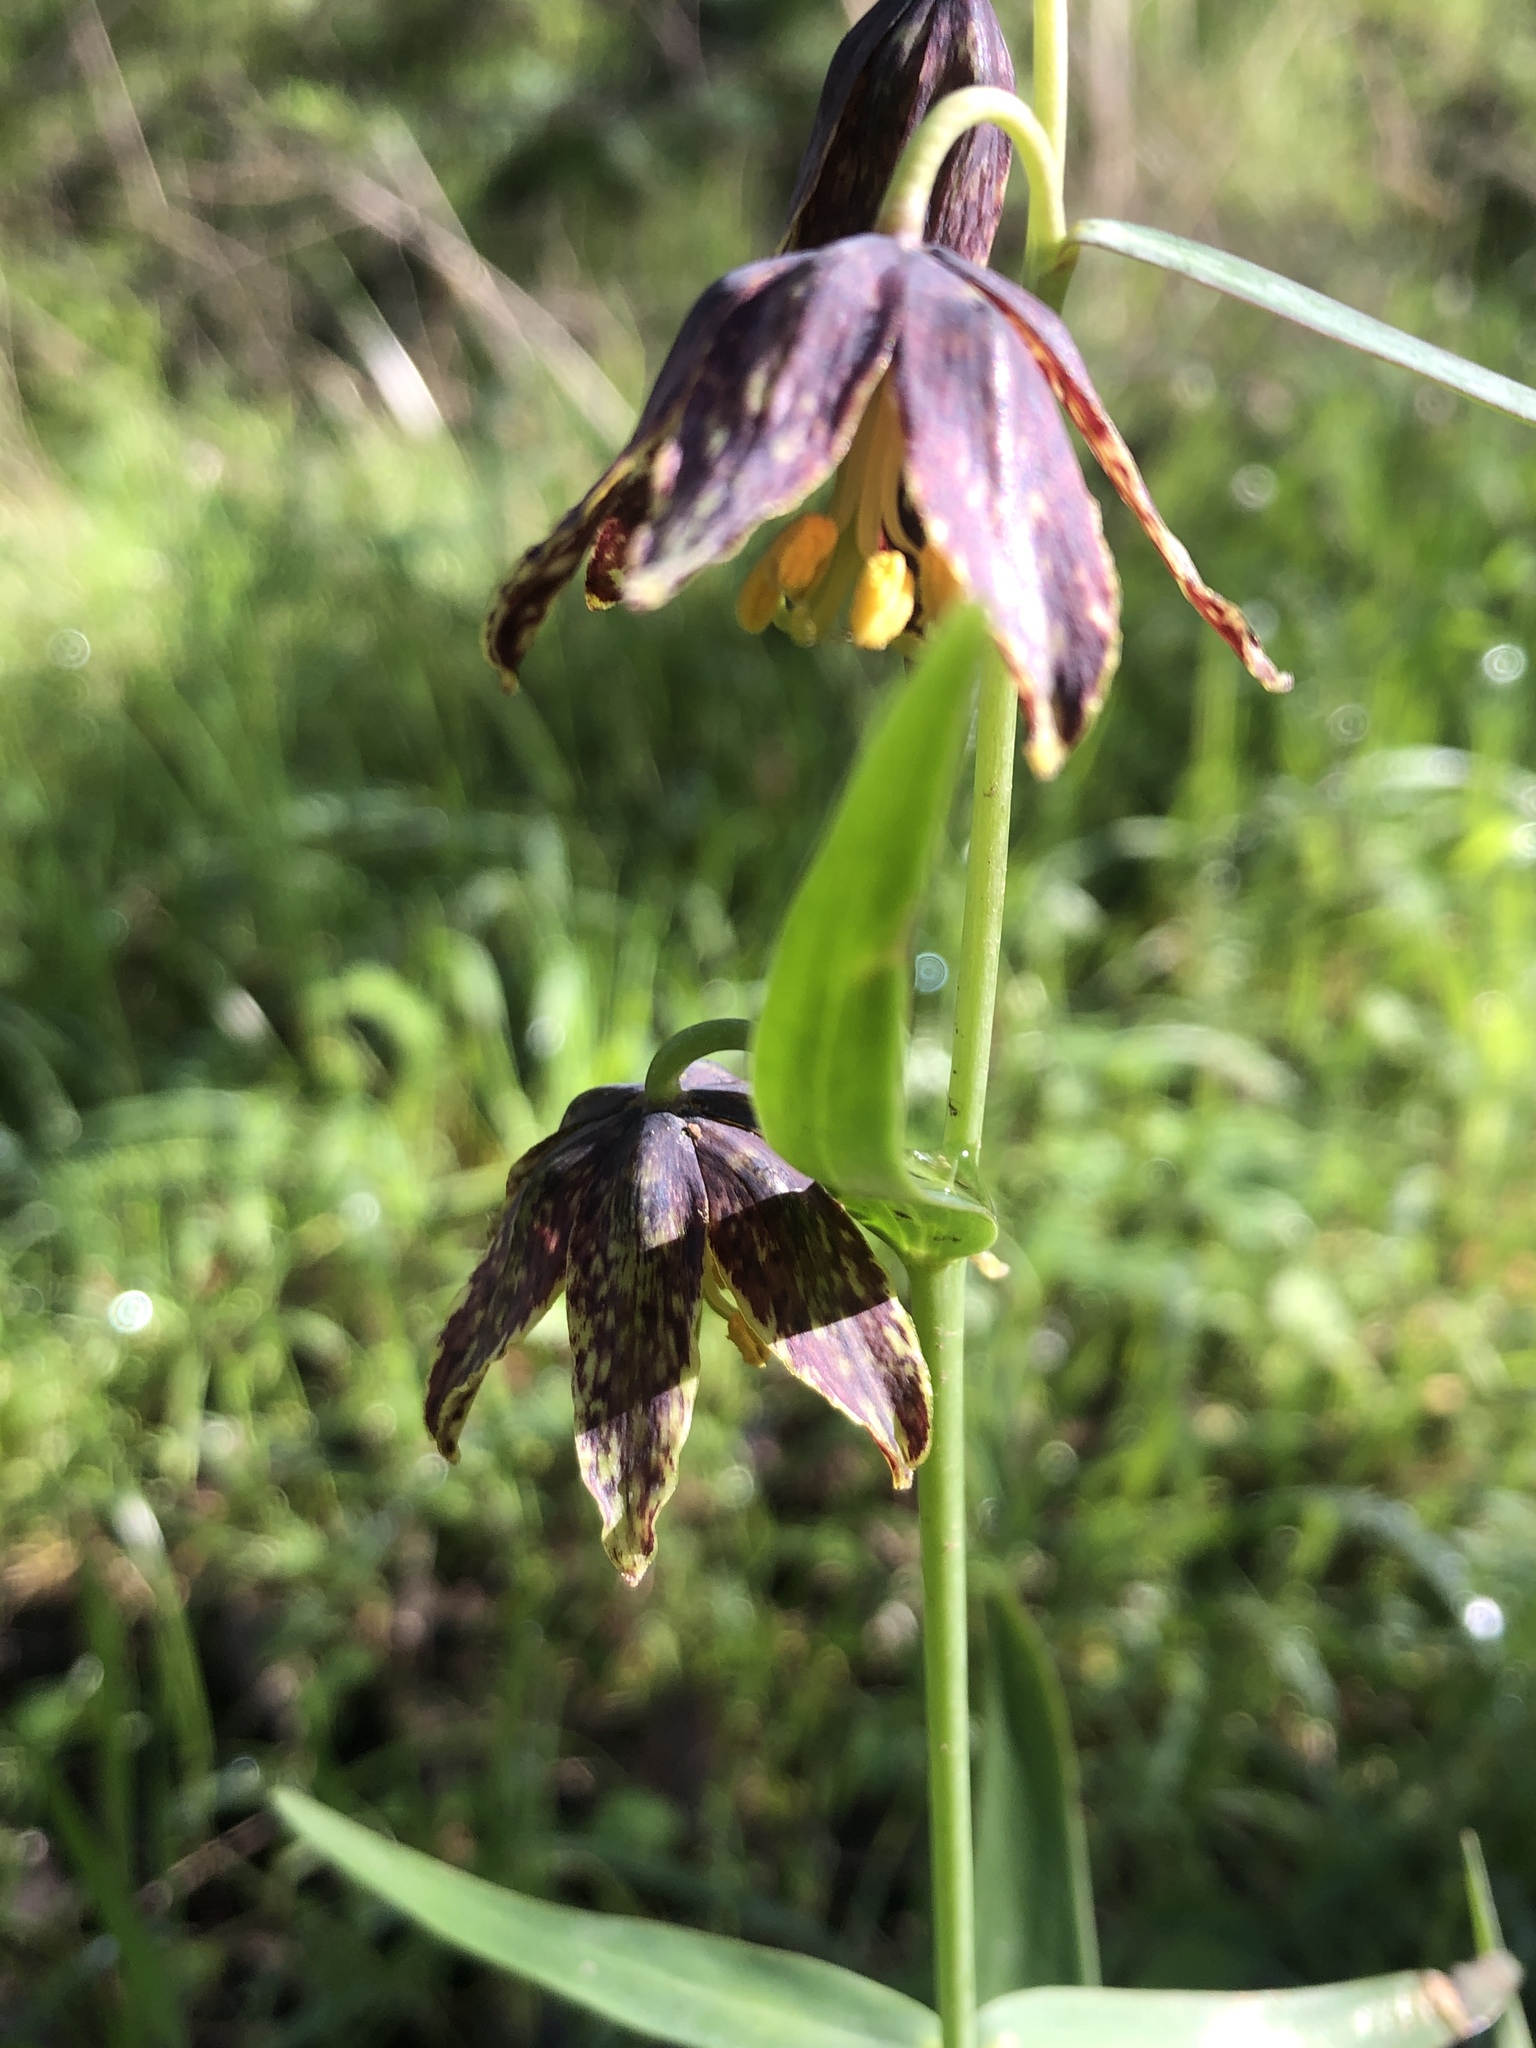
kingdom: Plantae
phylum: Tracheophyta
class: Liliopsida
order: Liliales
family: Liliaceae
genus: Fritillaria
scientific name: Fritillaria affinis
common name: Ojai fritillary
